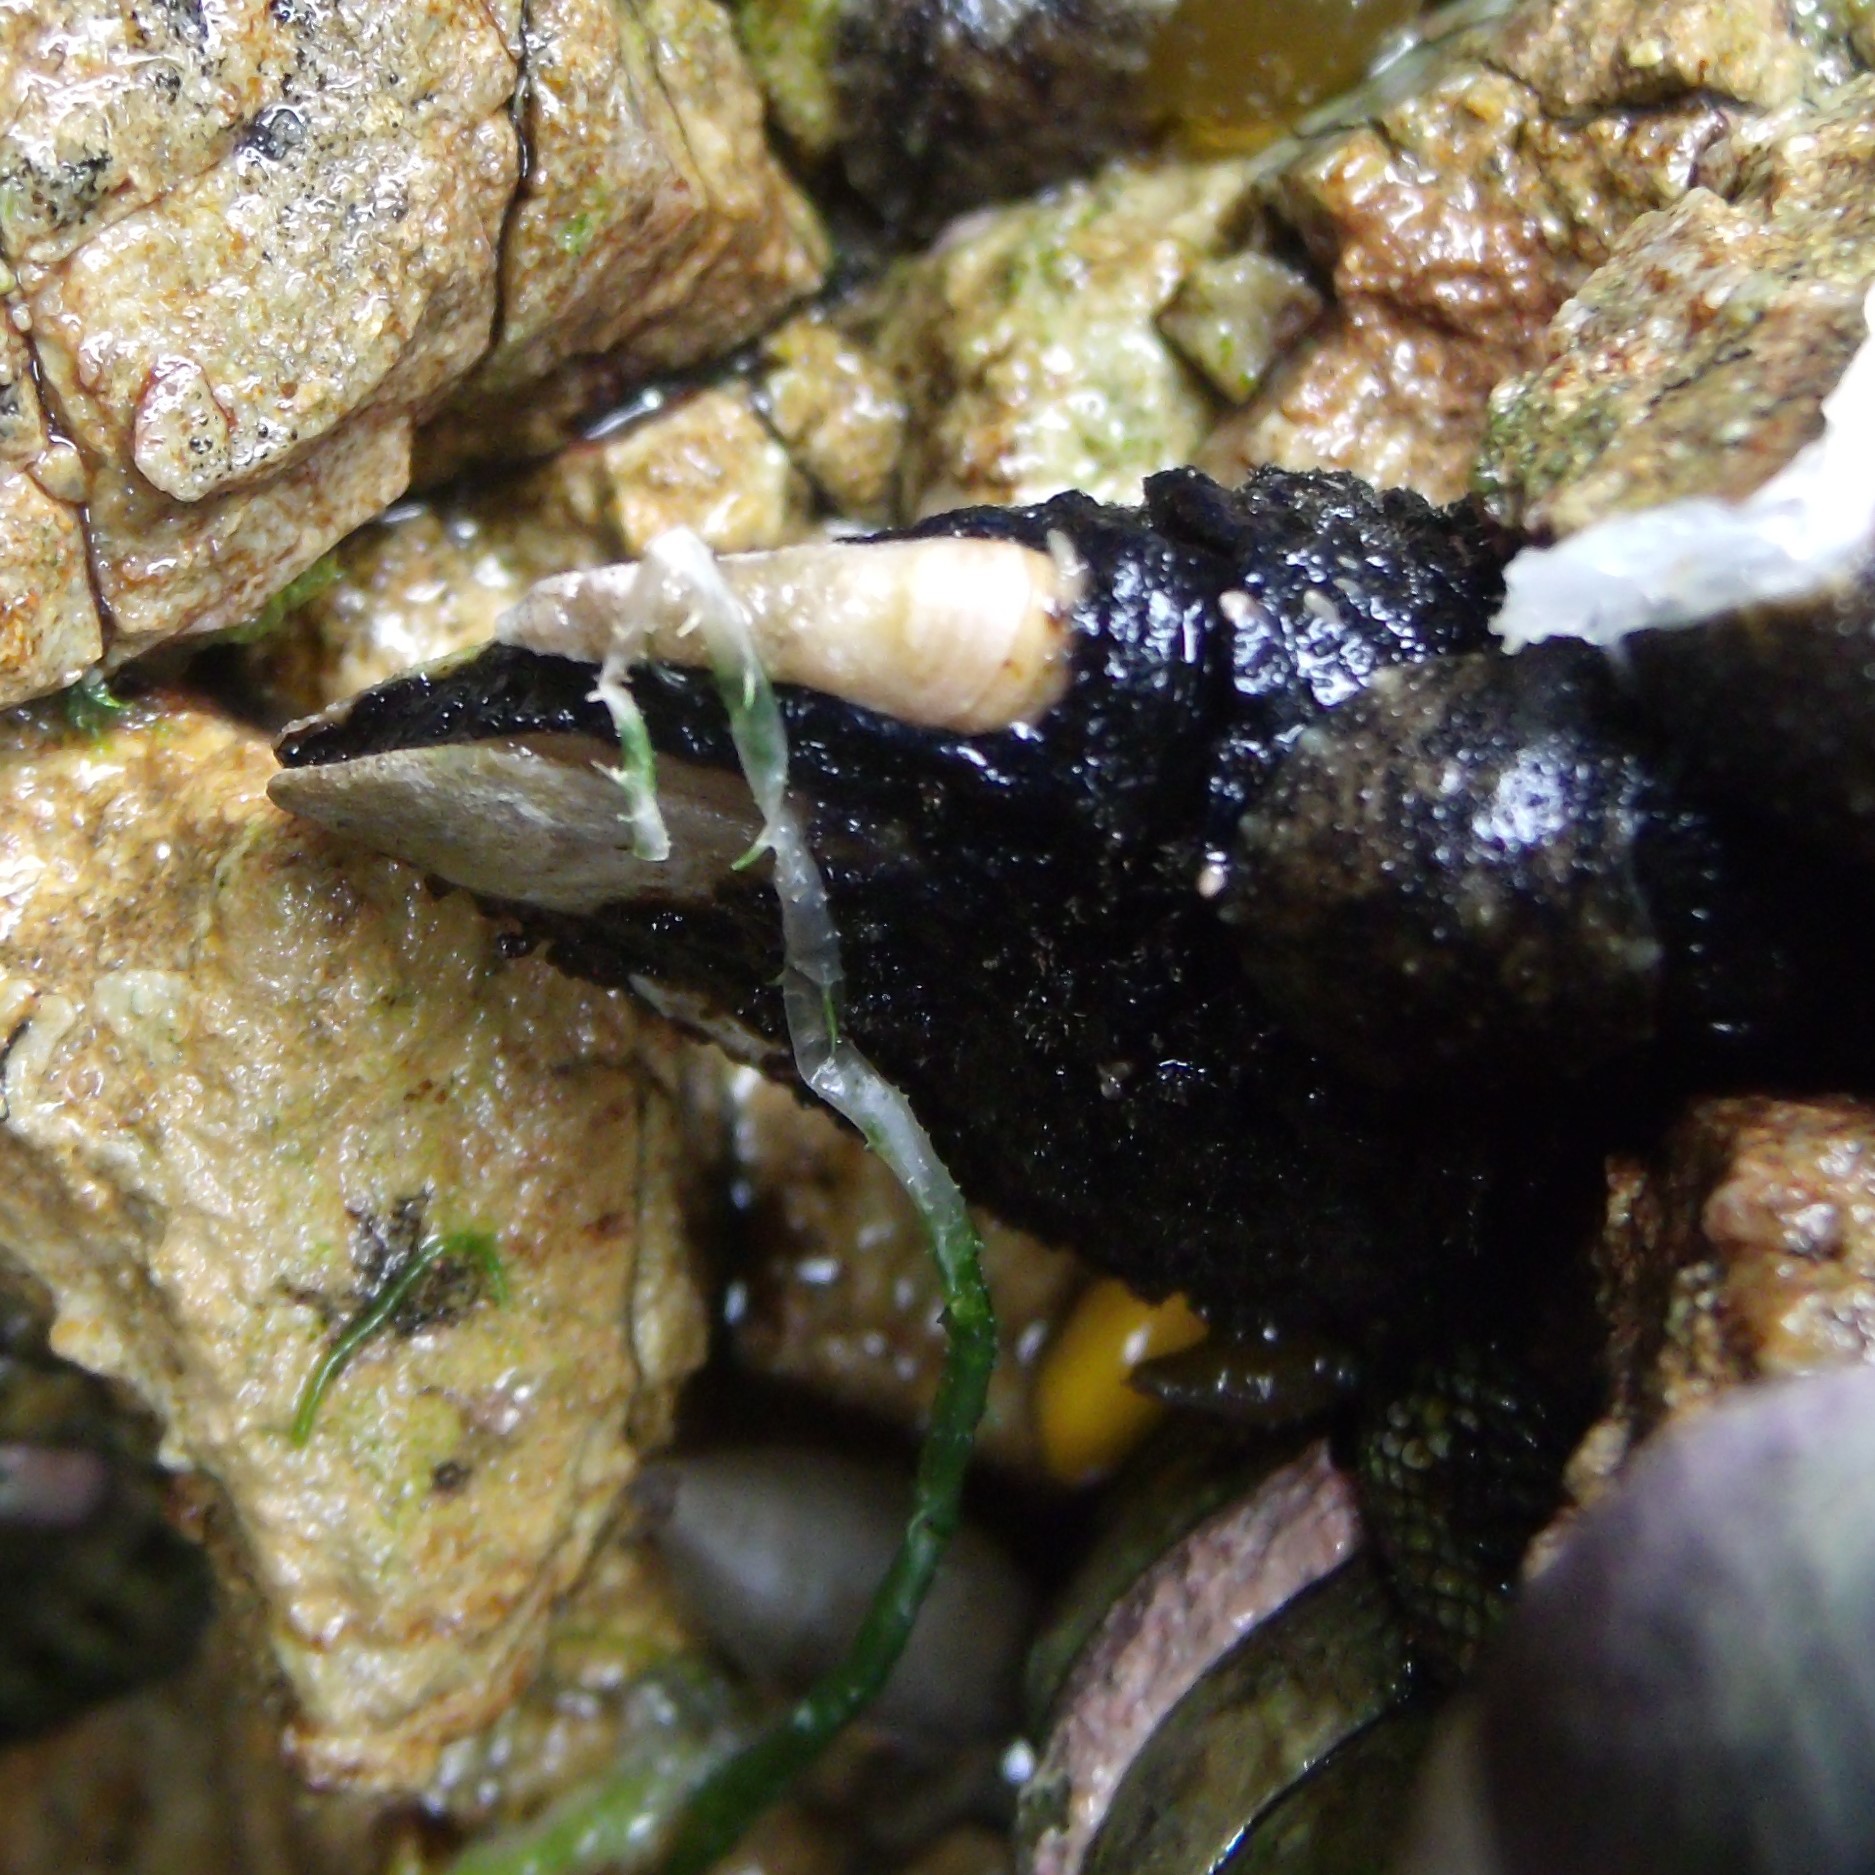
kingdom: Animalia
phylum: Arthropoda
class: Maxillopoda
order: Pedunculata
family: Calanticidae
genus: Calantica
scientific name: Calantica spinosa
